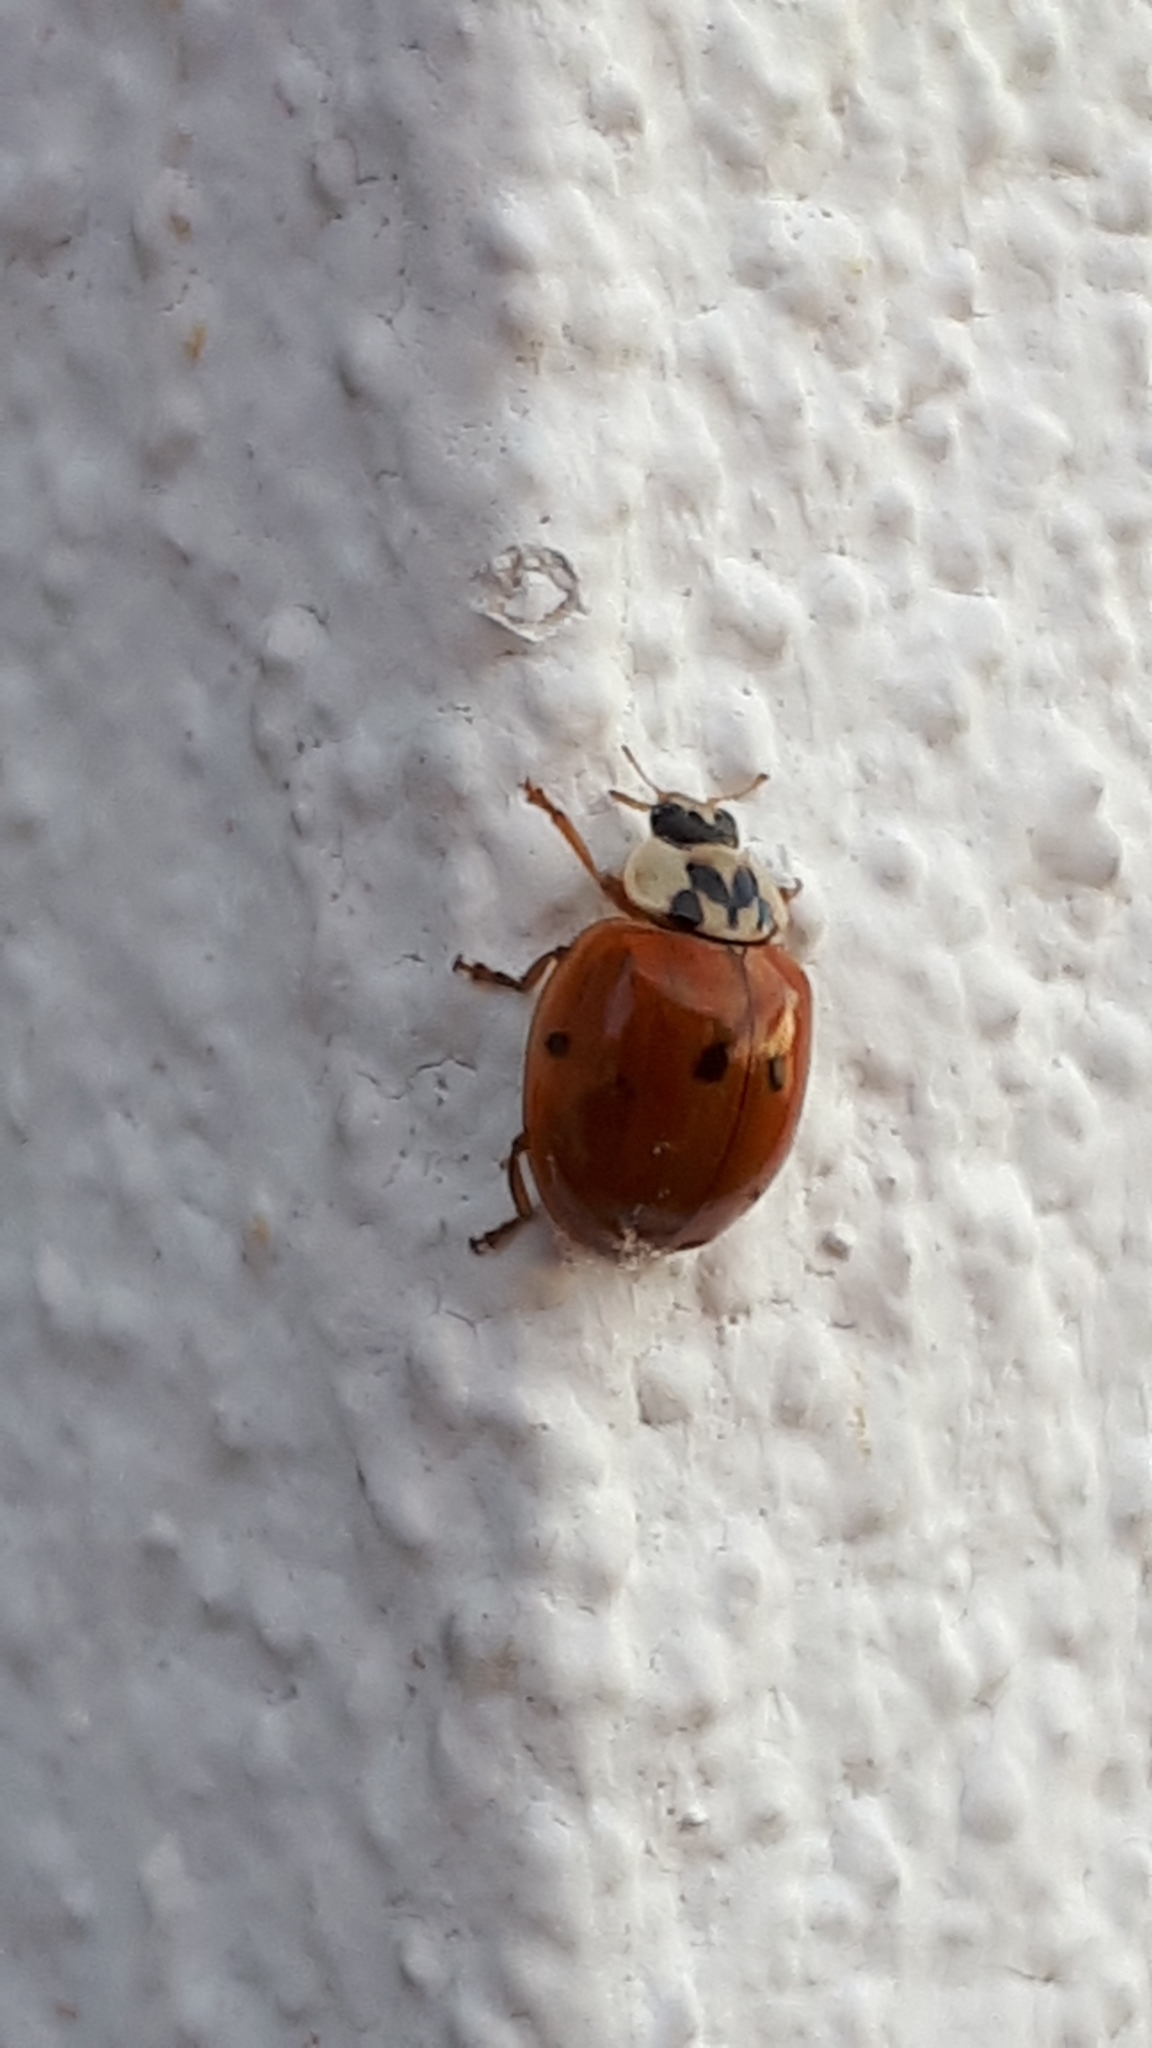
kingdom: Animalia
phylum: Arthropoda
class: Insecta
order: Coleoptera
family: Coccinellidae
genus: Harmonia
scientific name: Harmonia axyridis
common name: Harlequin ladybird
